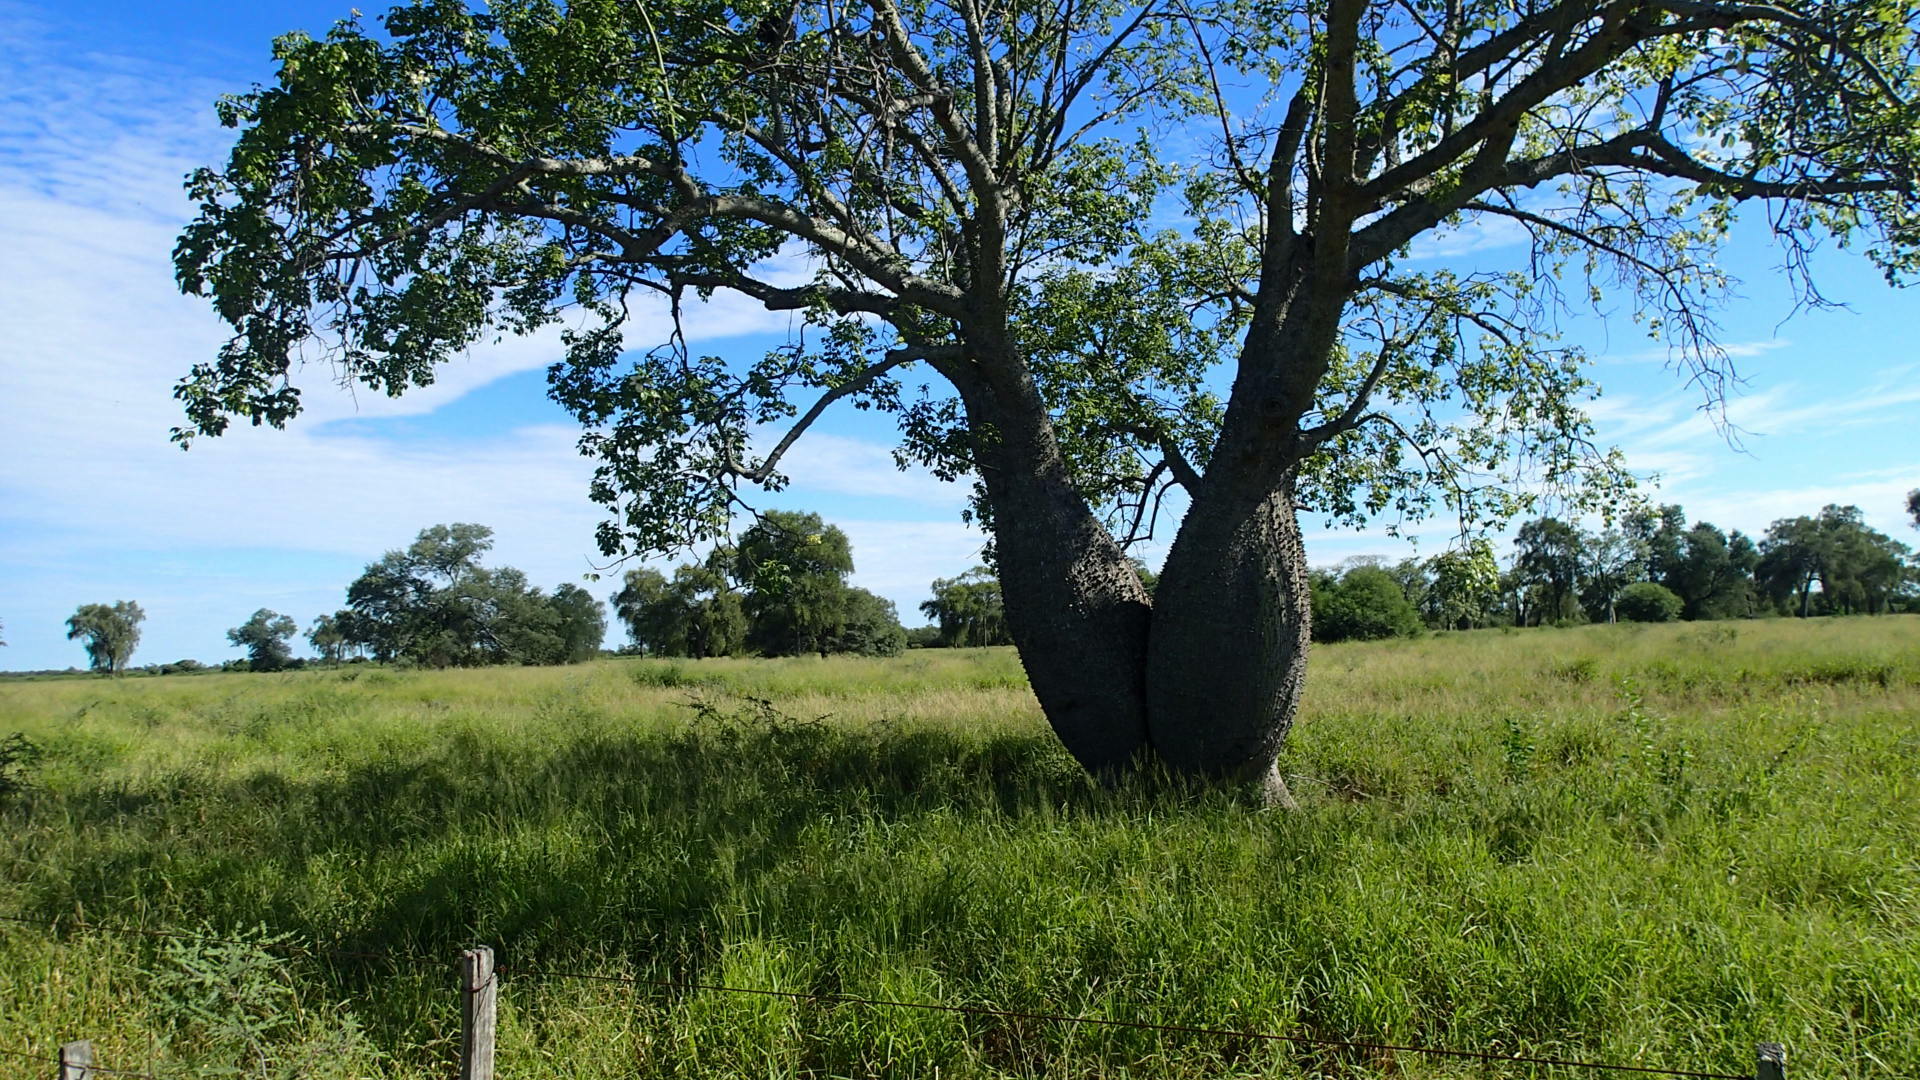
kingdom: Plantae
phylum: Tracheophyta
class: Magnoliopsida
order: Malvales
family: Malvaceae
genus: Ceiba
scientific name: Ceiba chodatii
